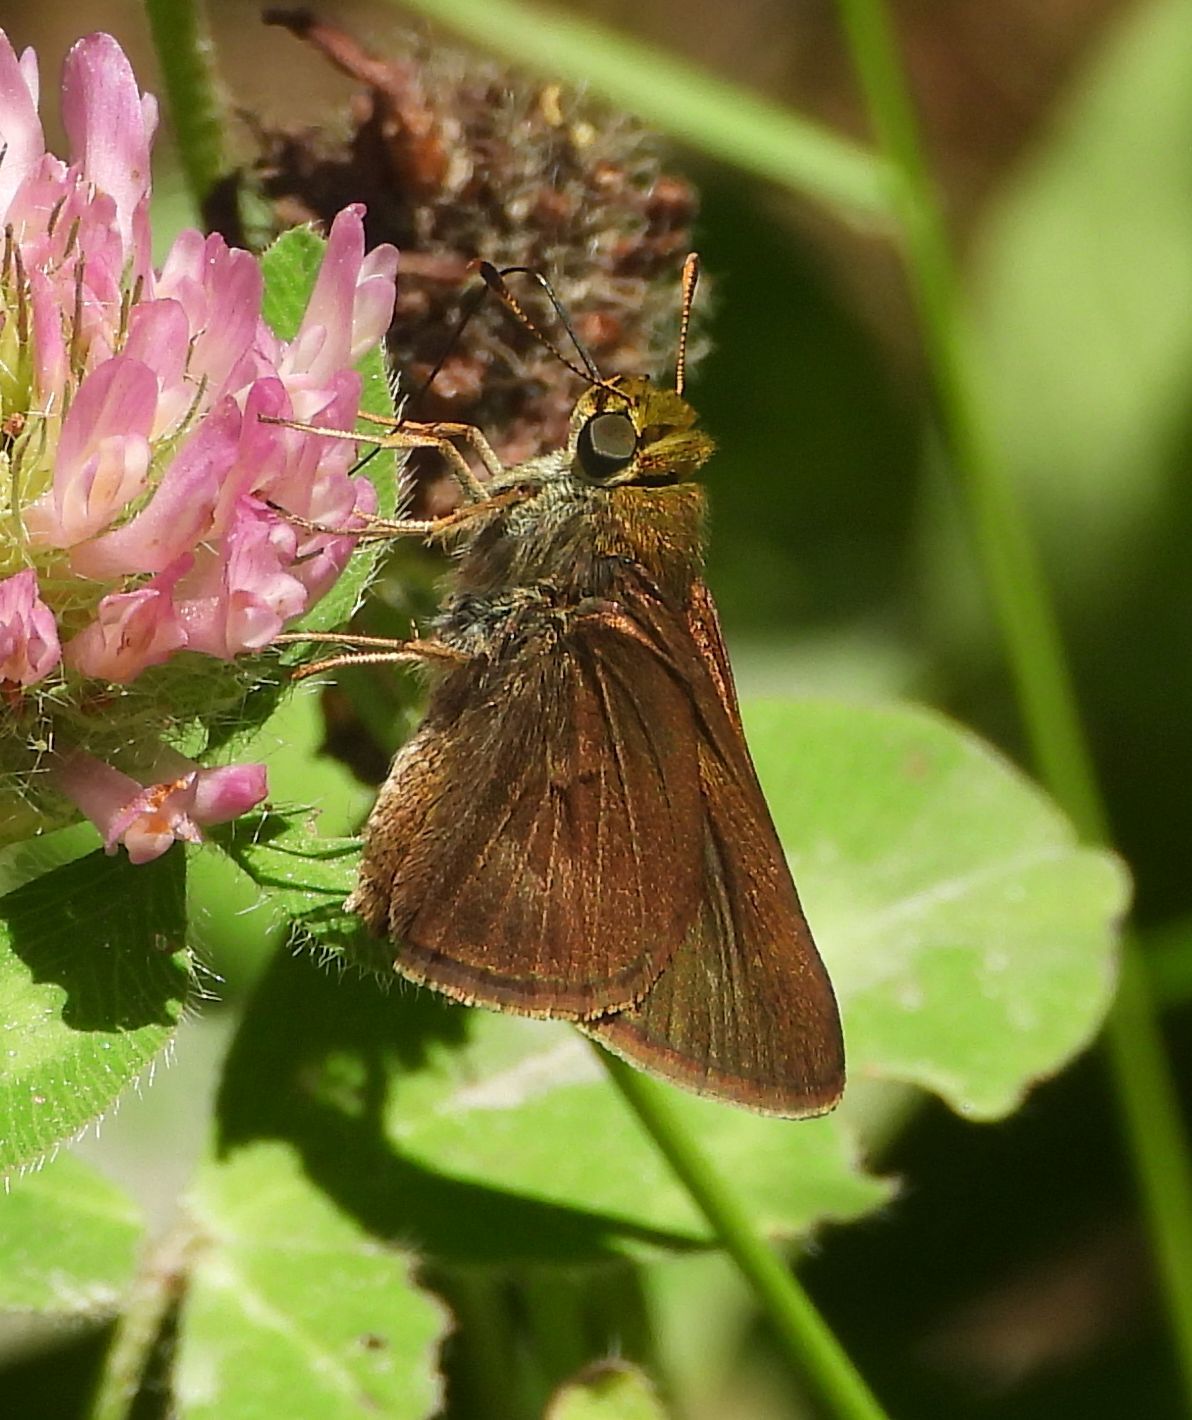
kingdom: Animalia
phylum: Arthropoda
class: Insecta
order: Lepidoptera
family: Hesperiidae
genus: Euphyes
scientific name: Euphyes vestris
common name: Dun skipper
